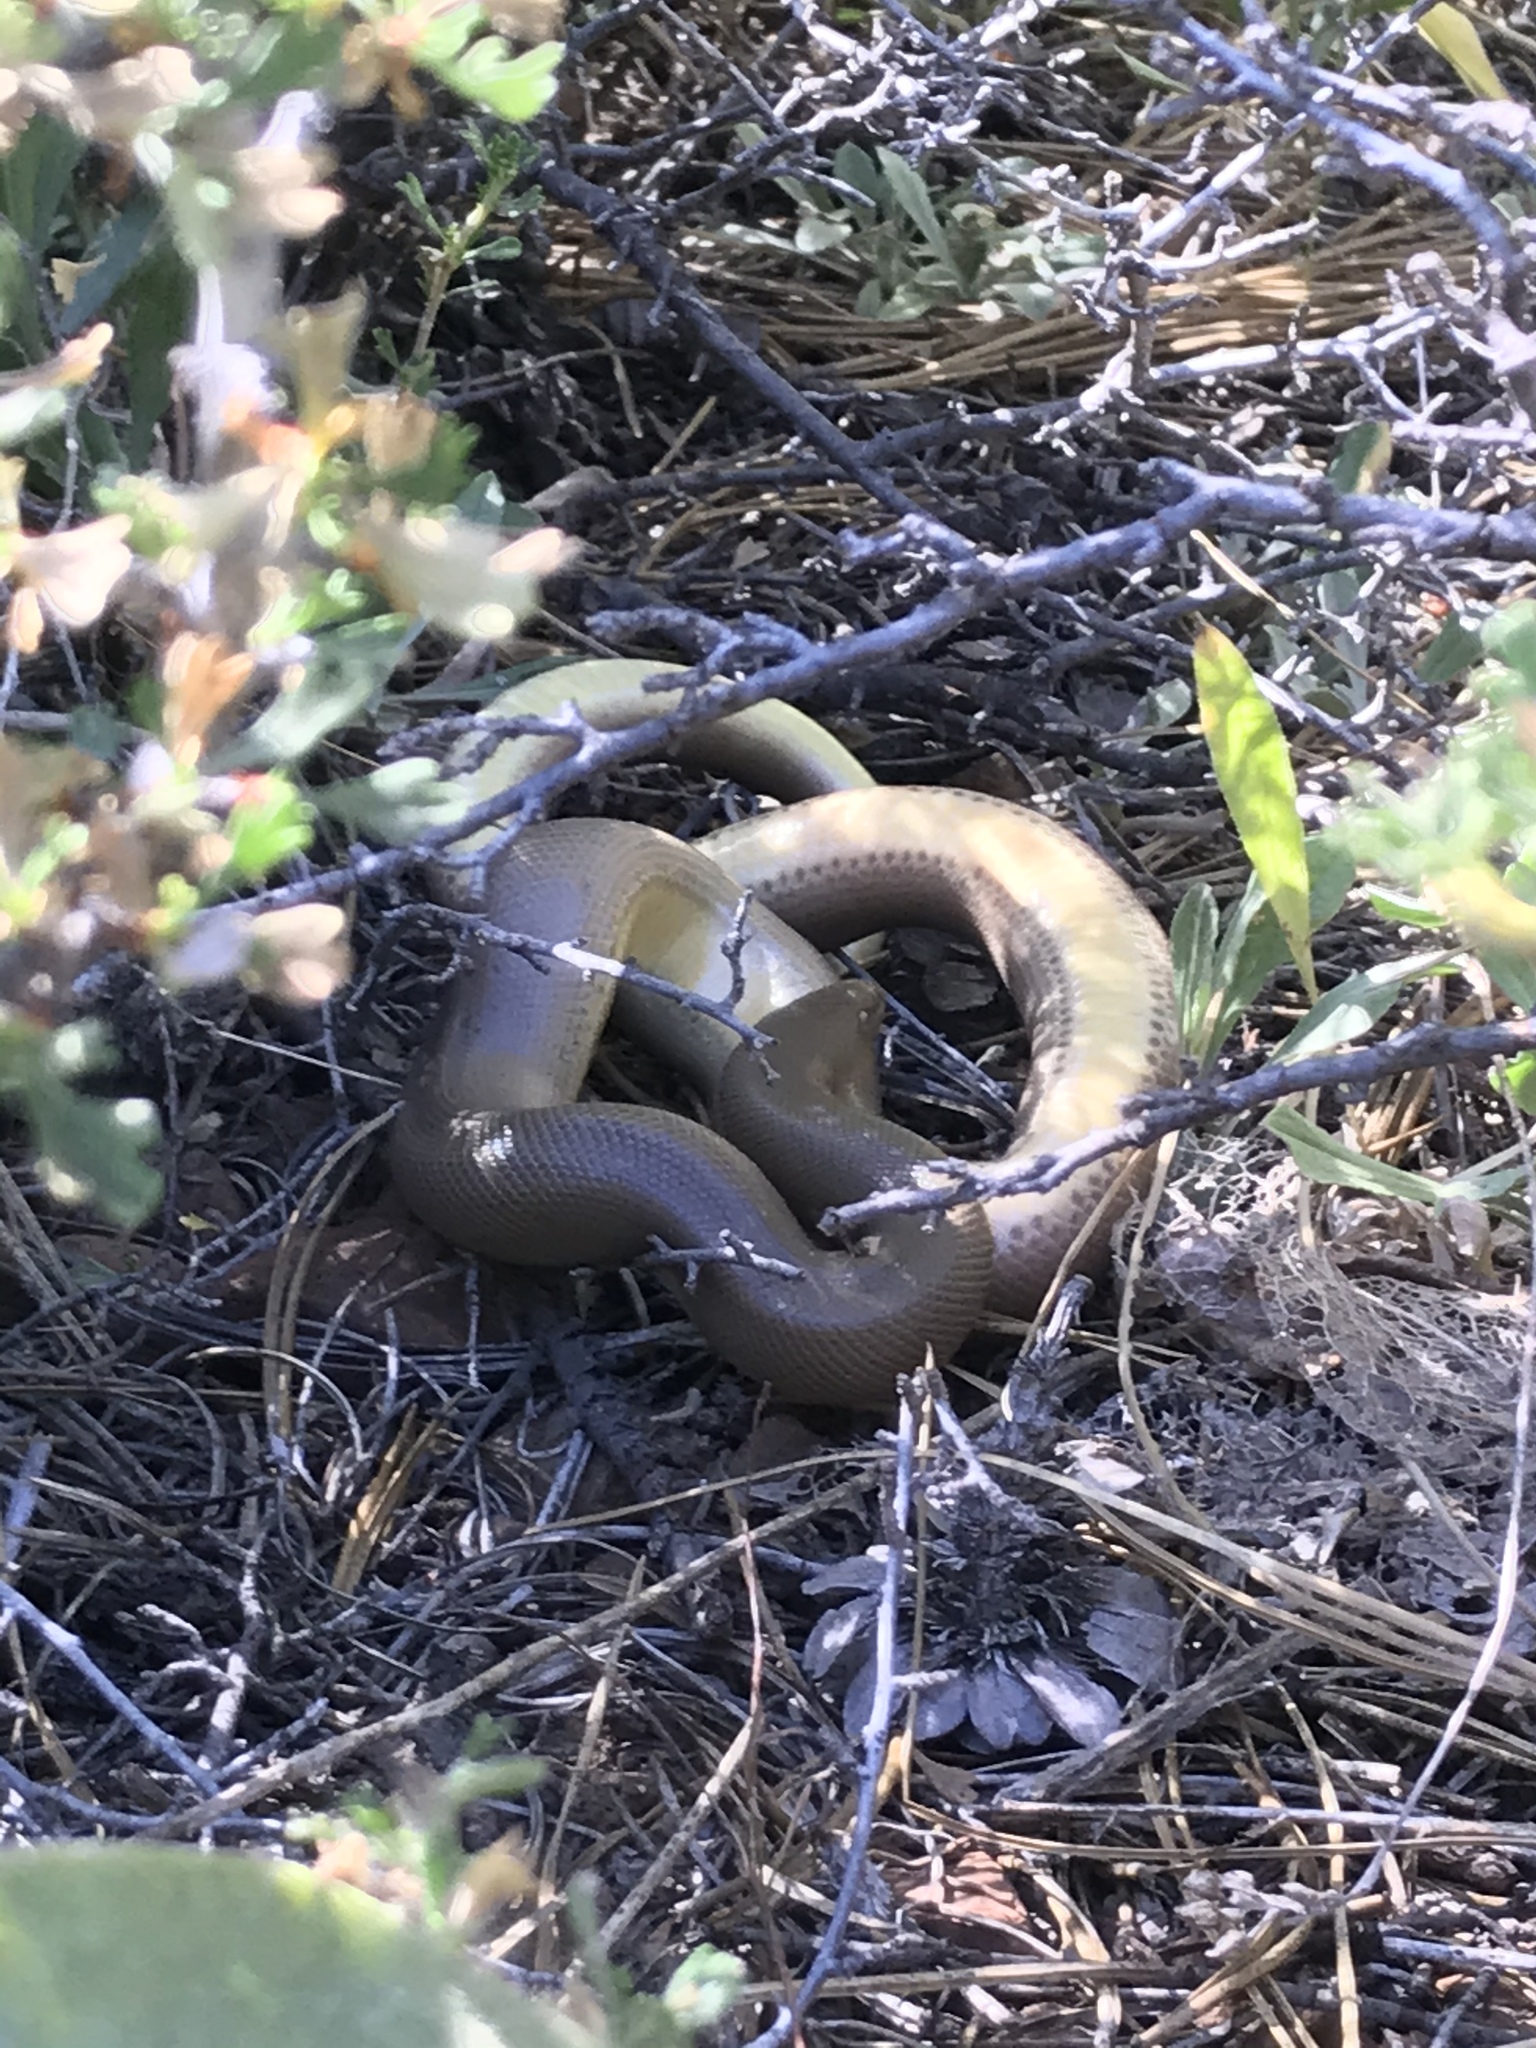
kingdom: Animalia
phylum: Chordata
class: Squamata
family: Boidae
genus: Charina
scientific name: Charina bottae
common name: Northern rubber boa
